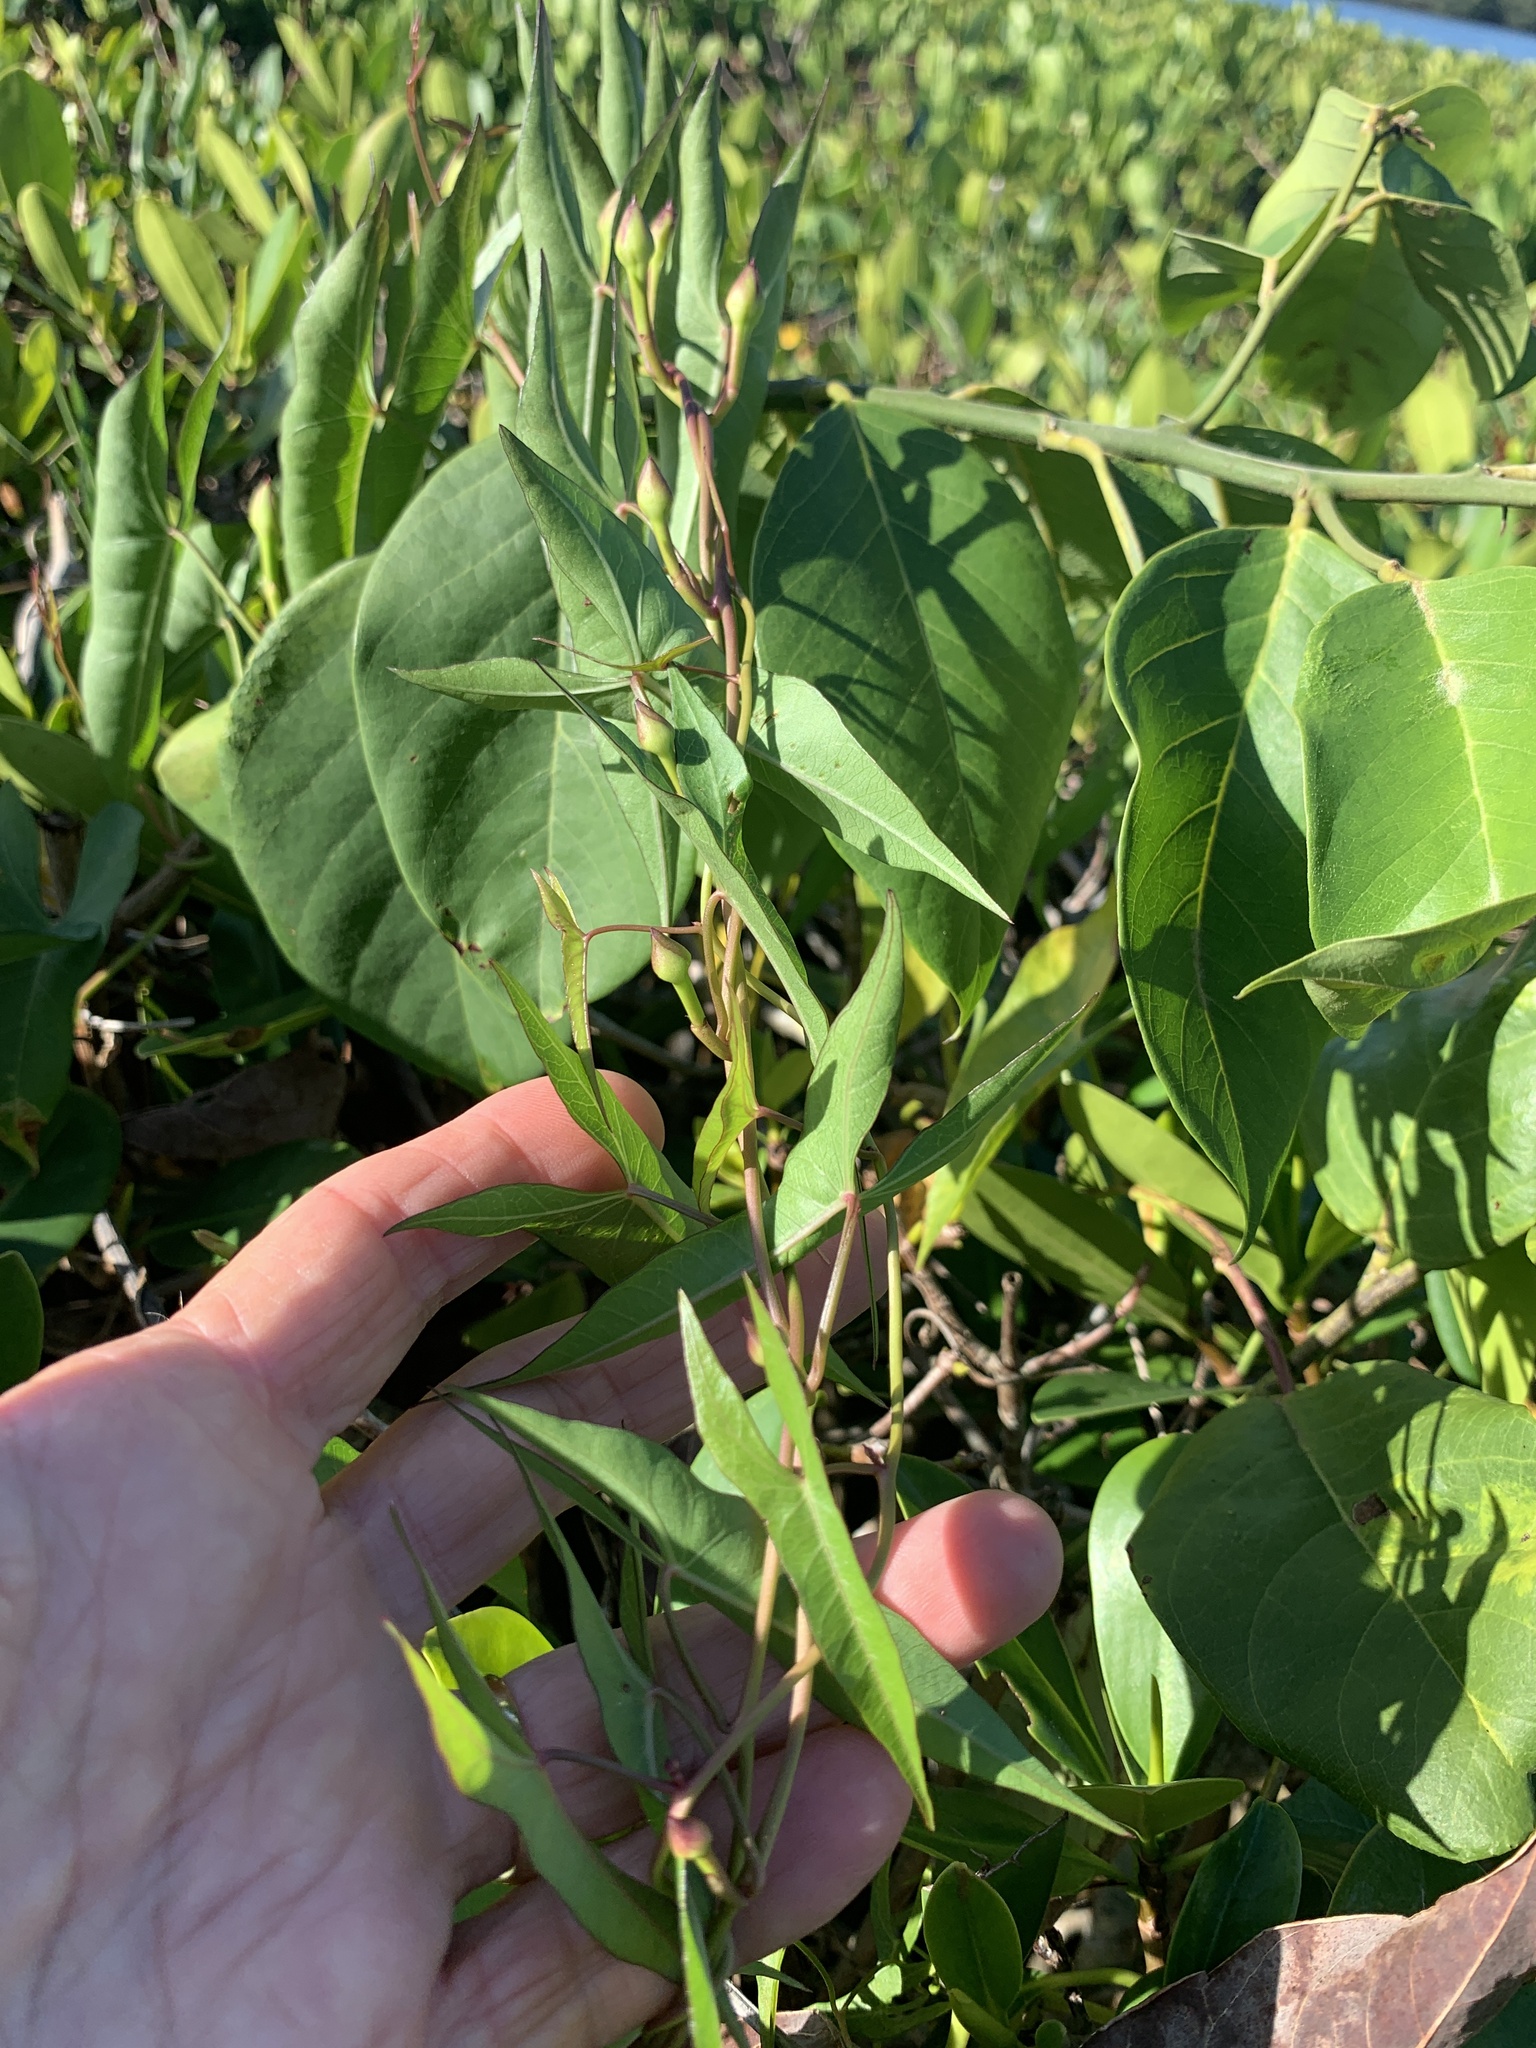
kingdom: Plantae
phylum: Tracheophyta
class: Magnoliopsida
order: Solanales
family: Convolvulaceae
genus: Ipomoea
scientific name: Ipomoea sagittata
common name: Saltmarsh morning glory
